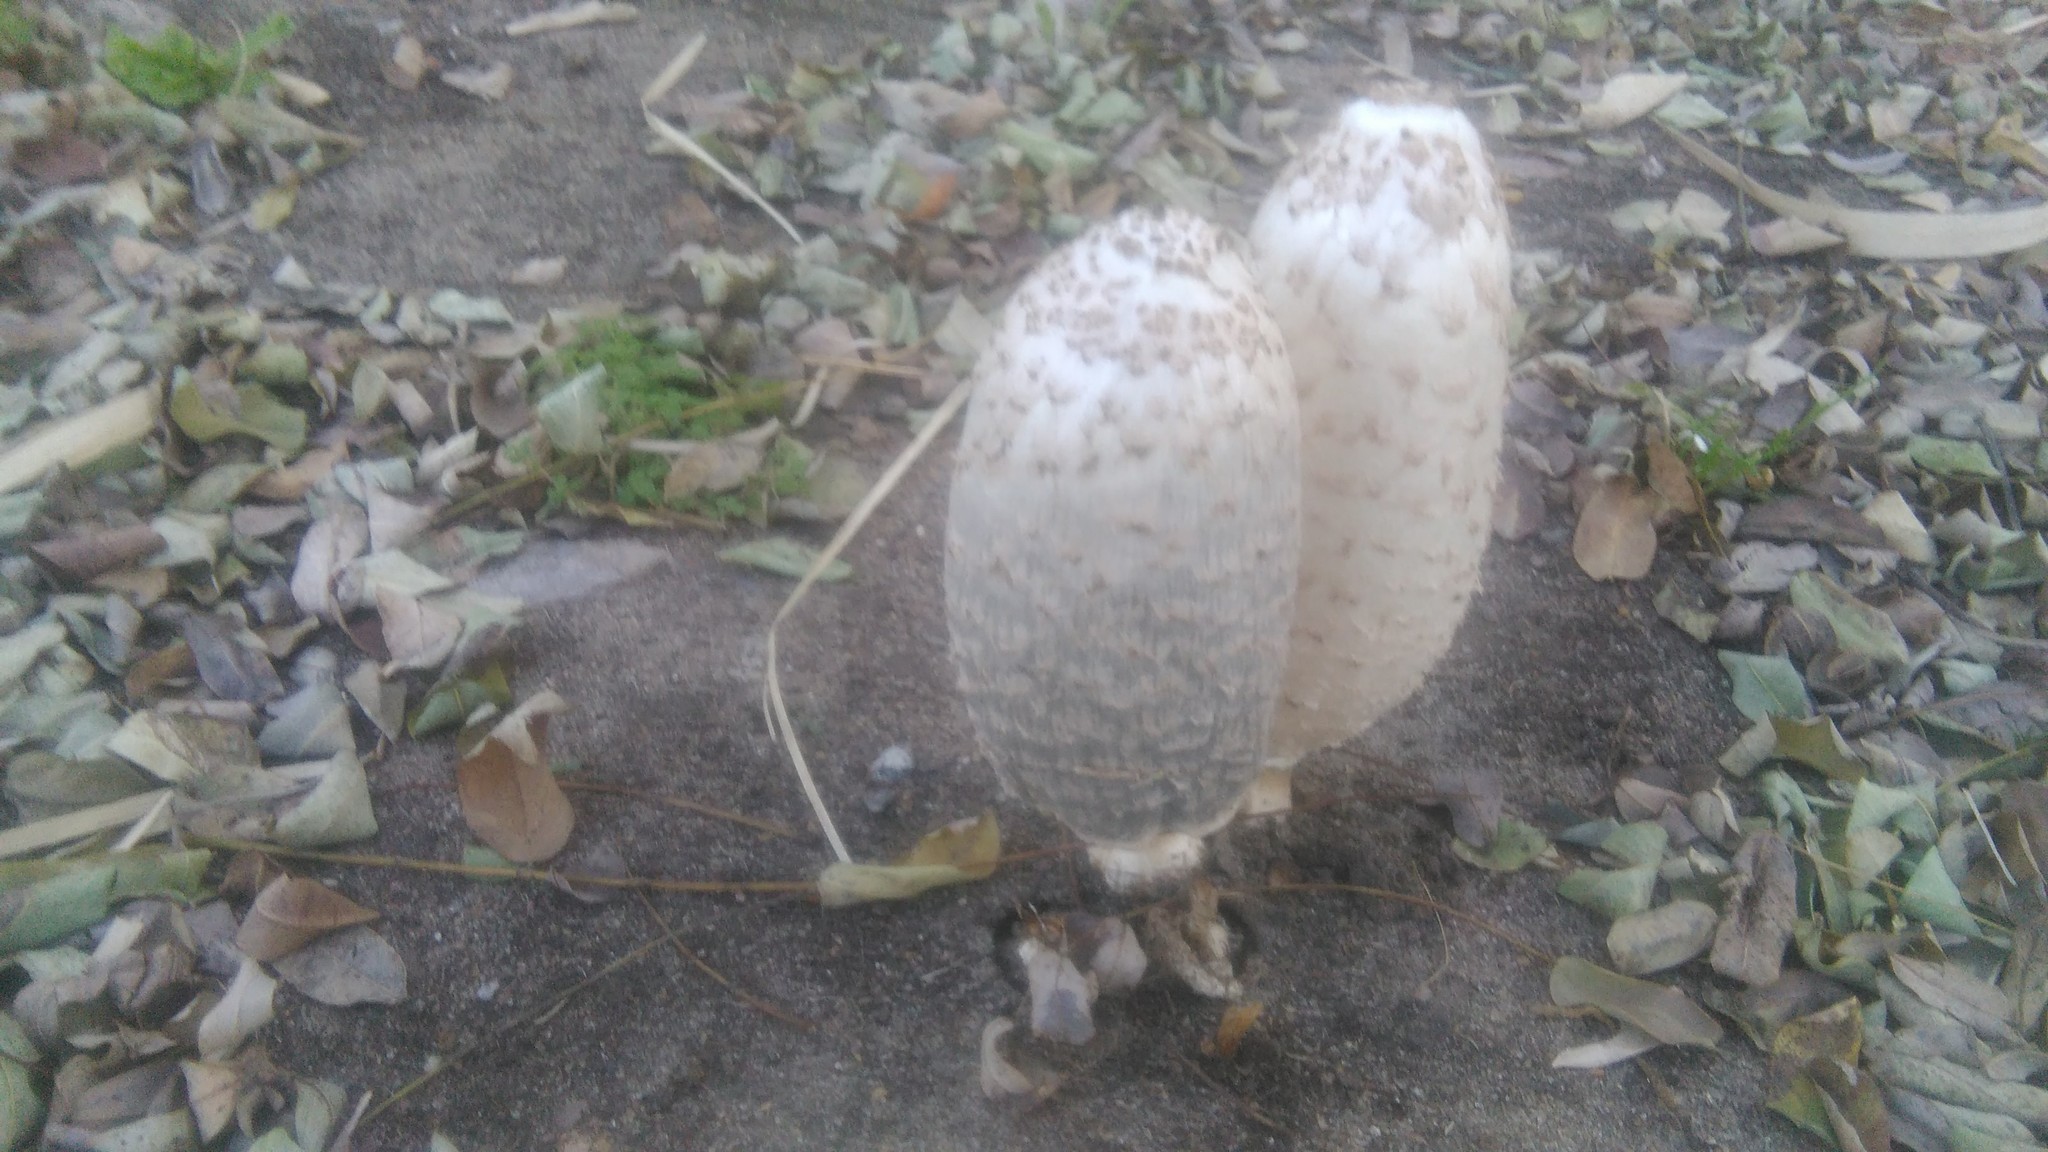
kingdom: Fungi
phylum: Basidiomycota
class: Agaricomycetes
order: Agaricales
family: Agaricaceae
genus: Coprinus
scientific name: Coprinus comatus
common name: Lawyer's wig
